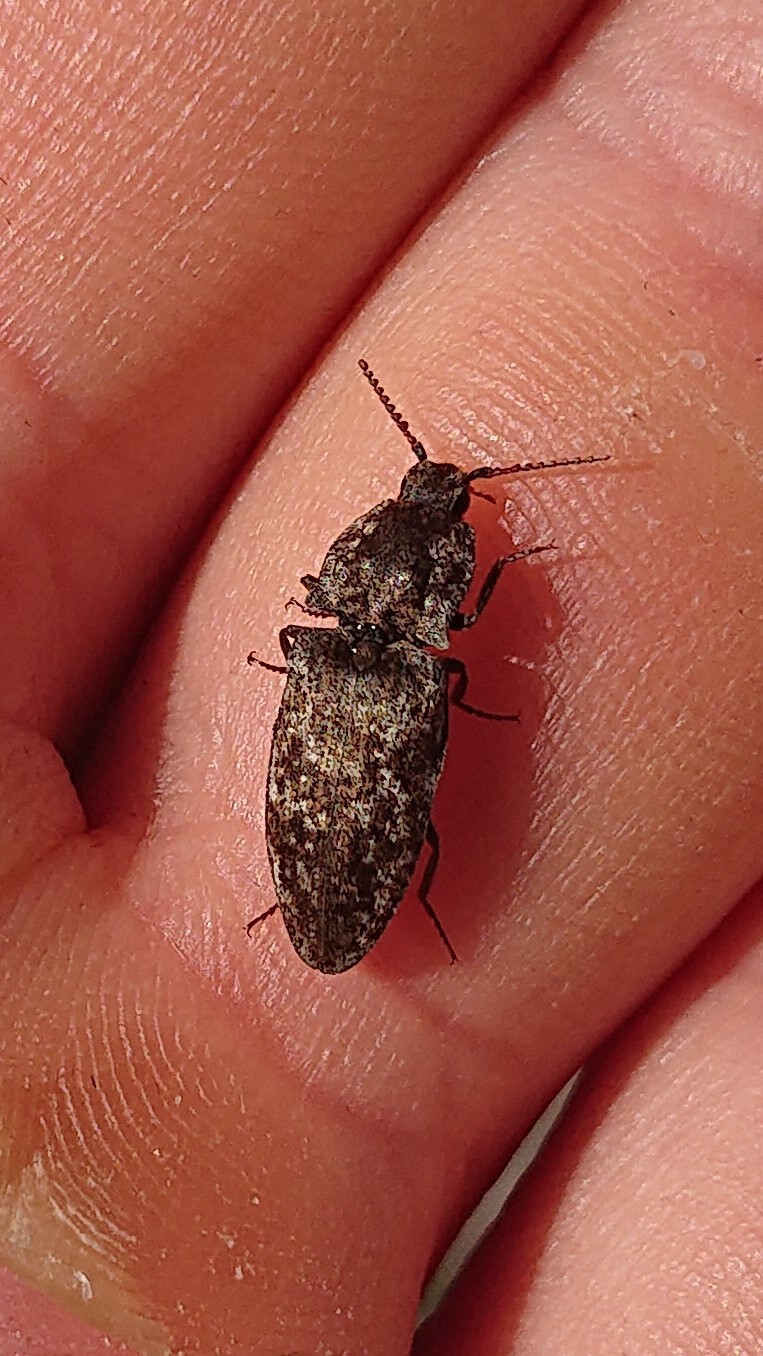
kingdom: Animalia
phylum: Arthropoda
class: Insecta
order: Coleoptera
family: Elateridae
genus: Agrypnus
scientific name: Agrypnus murinus
